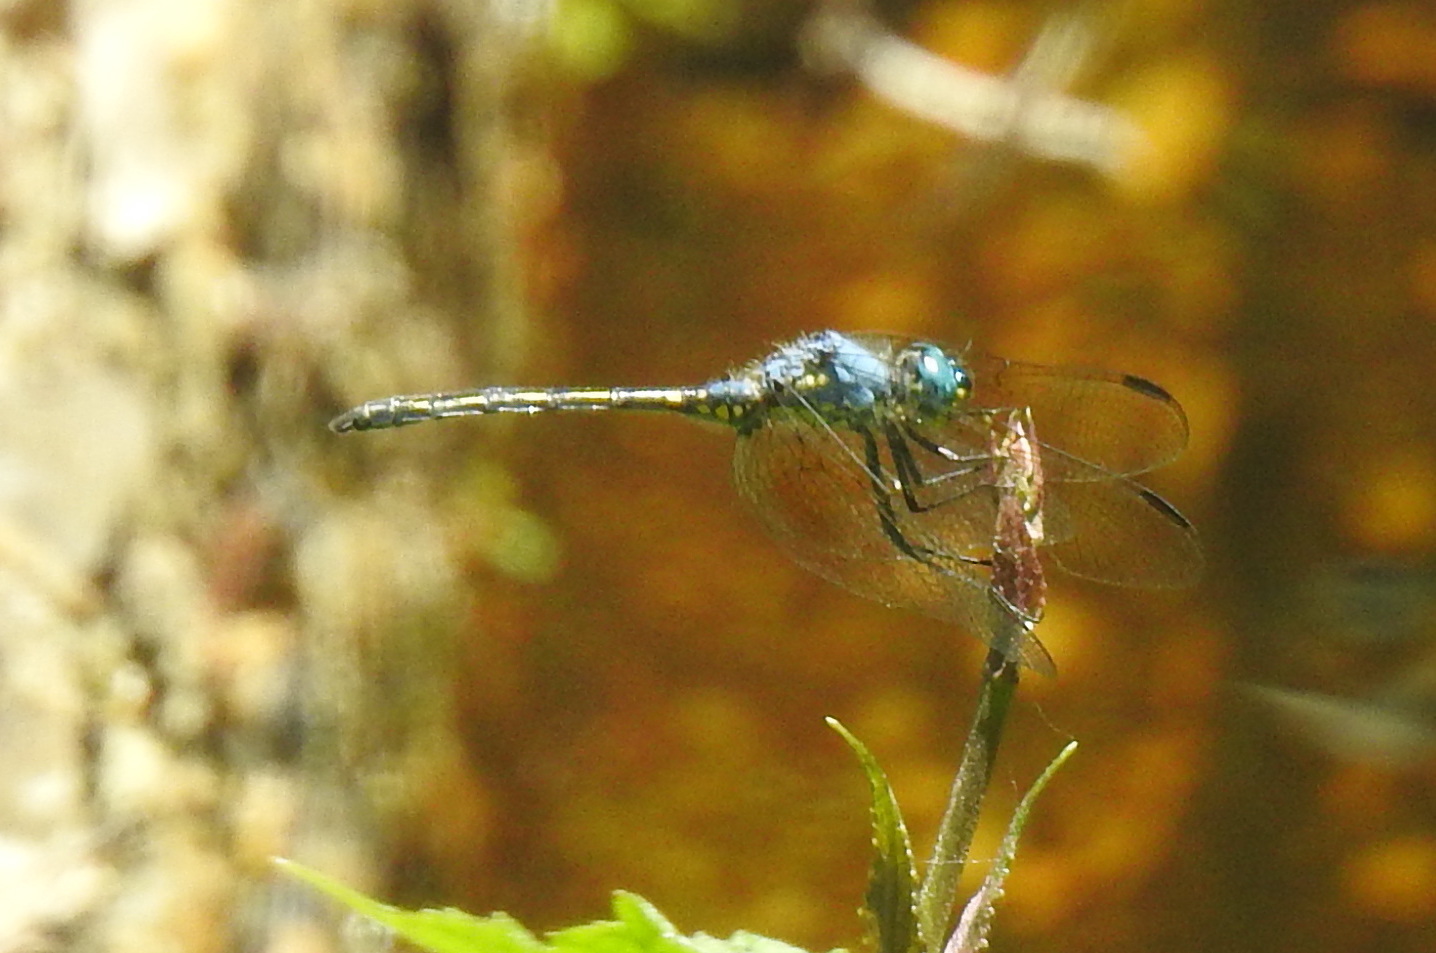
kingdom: Animalia
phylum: Arthropoda
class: Insecta
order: Odonata
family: Libellulidae
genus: Trithemis
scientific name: Trithemis stictica
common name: Jaunty dropwing
